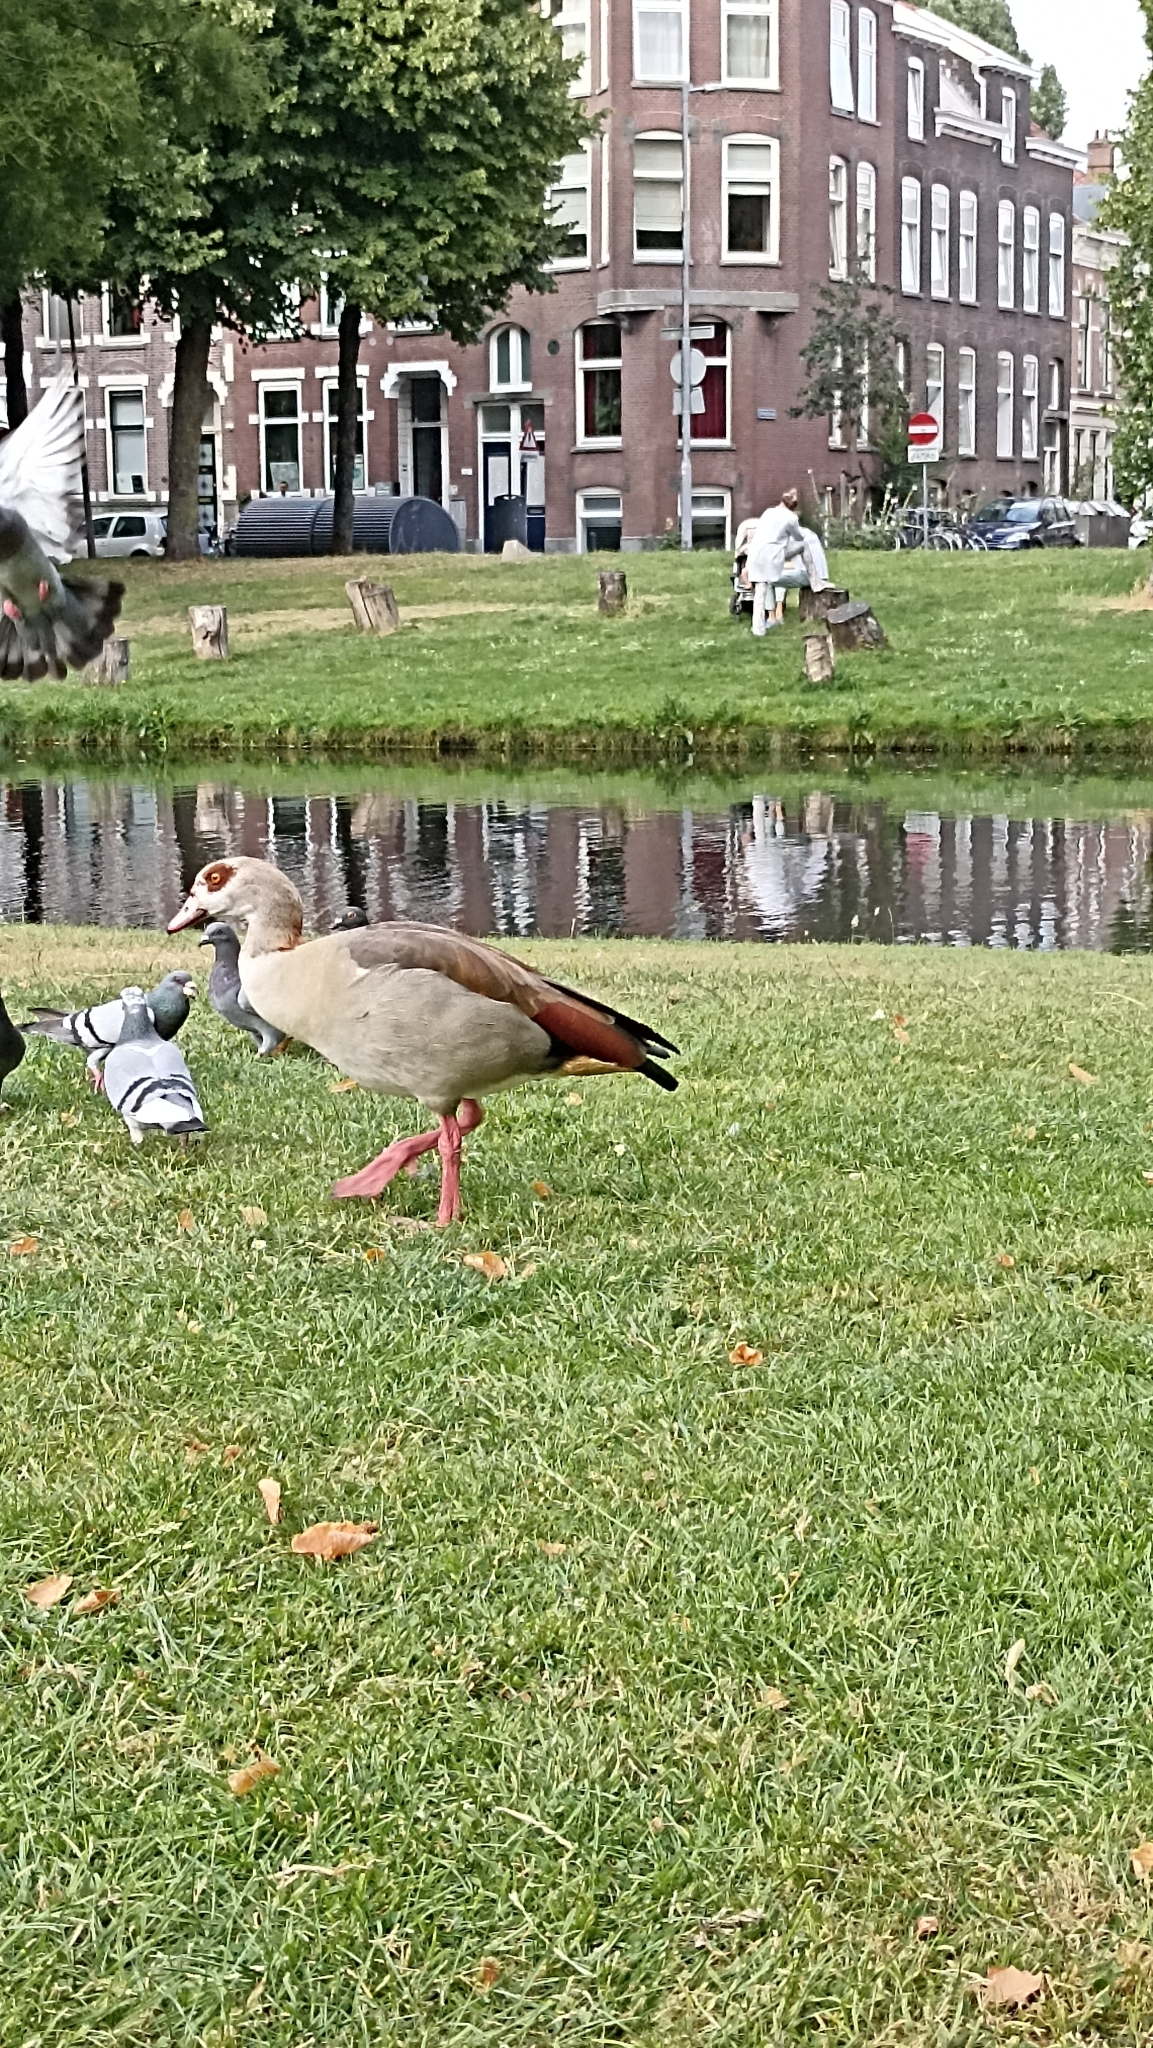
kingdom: Animalia
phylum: Chordata
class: Aves
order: Anseriformes
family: Anatidae
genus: Alopochen
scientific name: Alopochen aegyptiaca
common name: Egyptian goose
